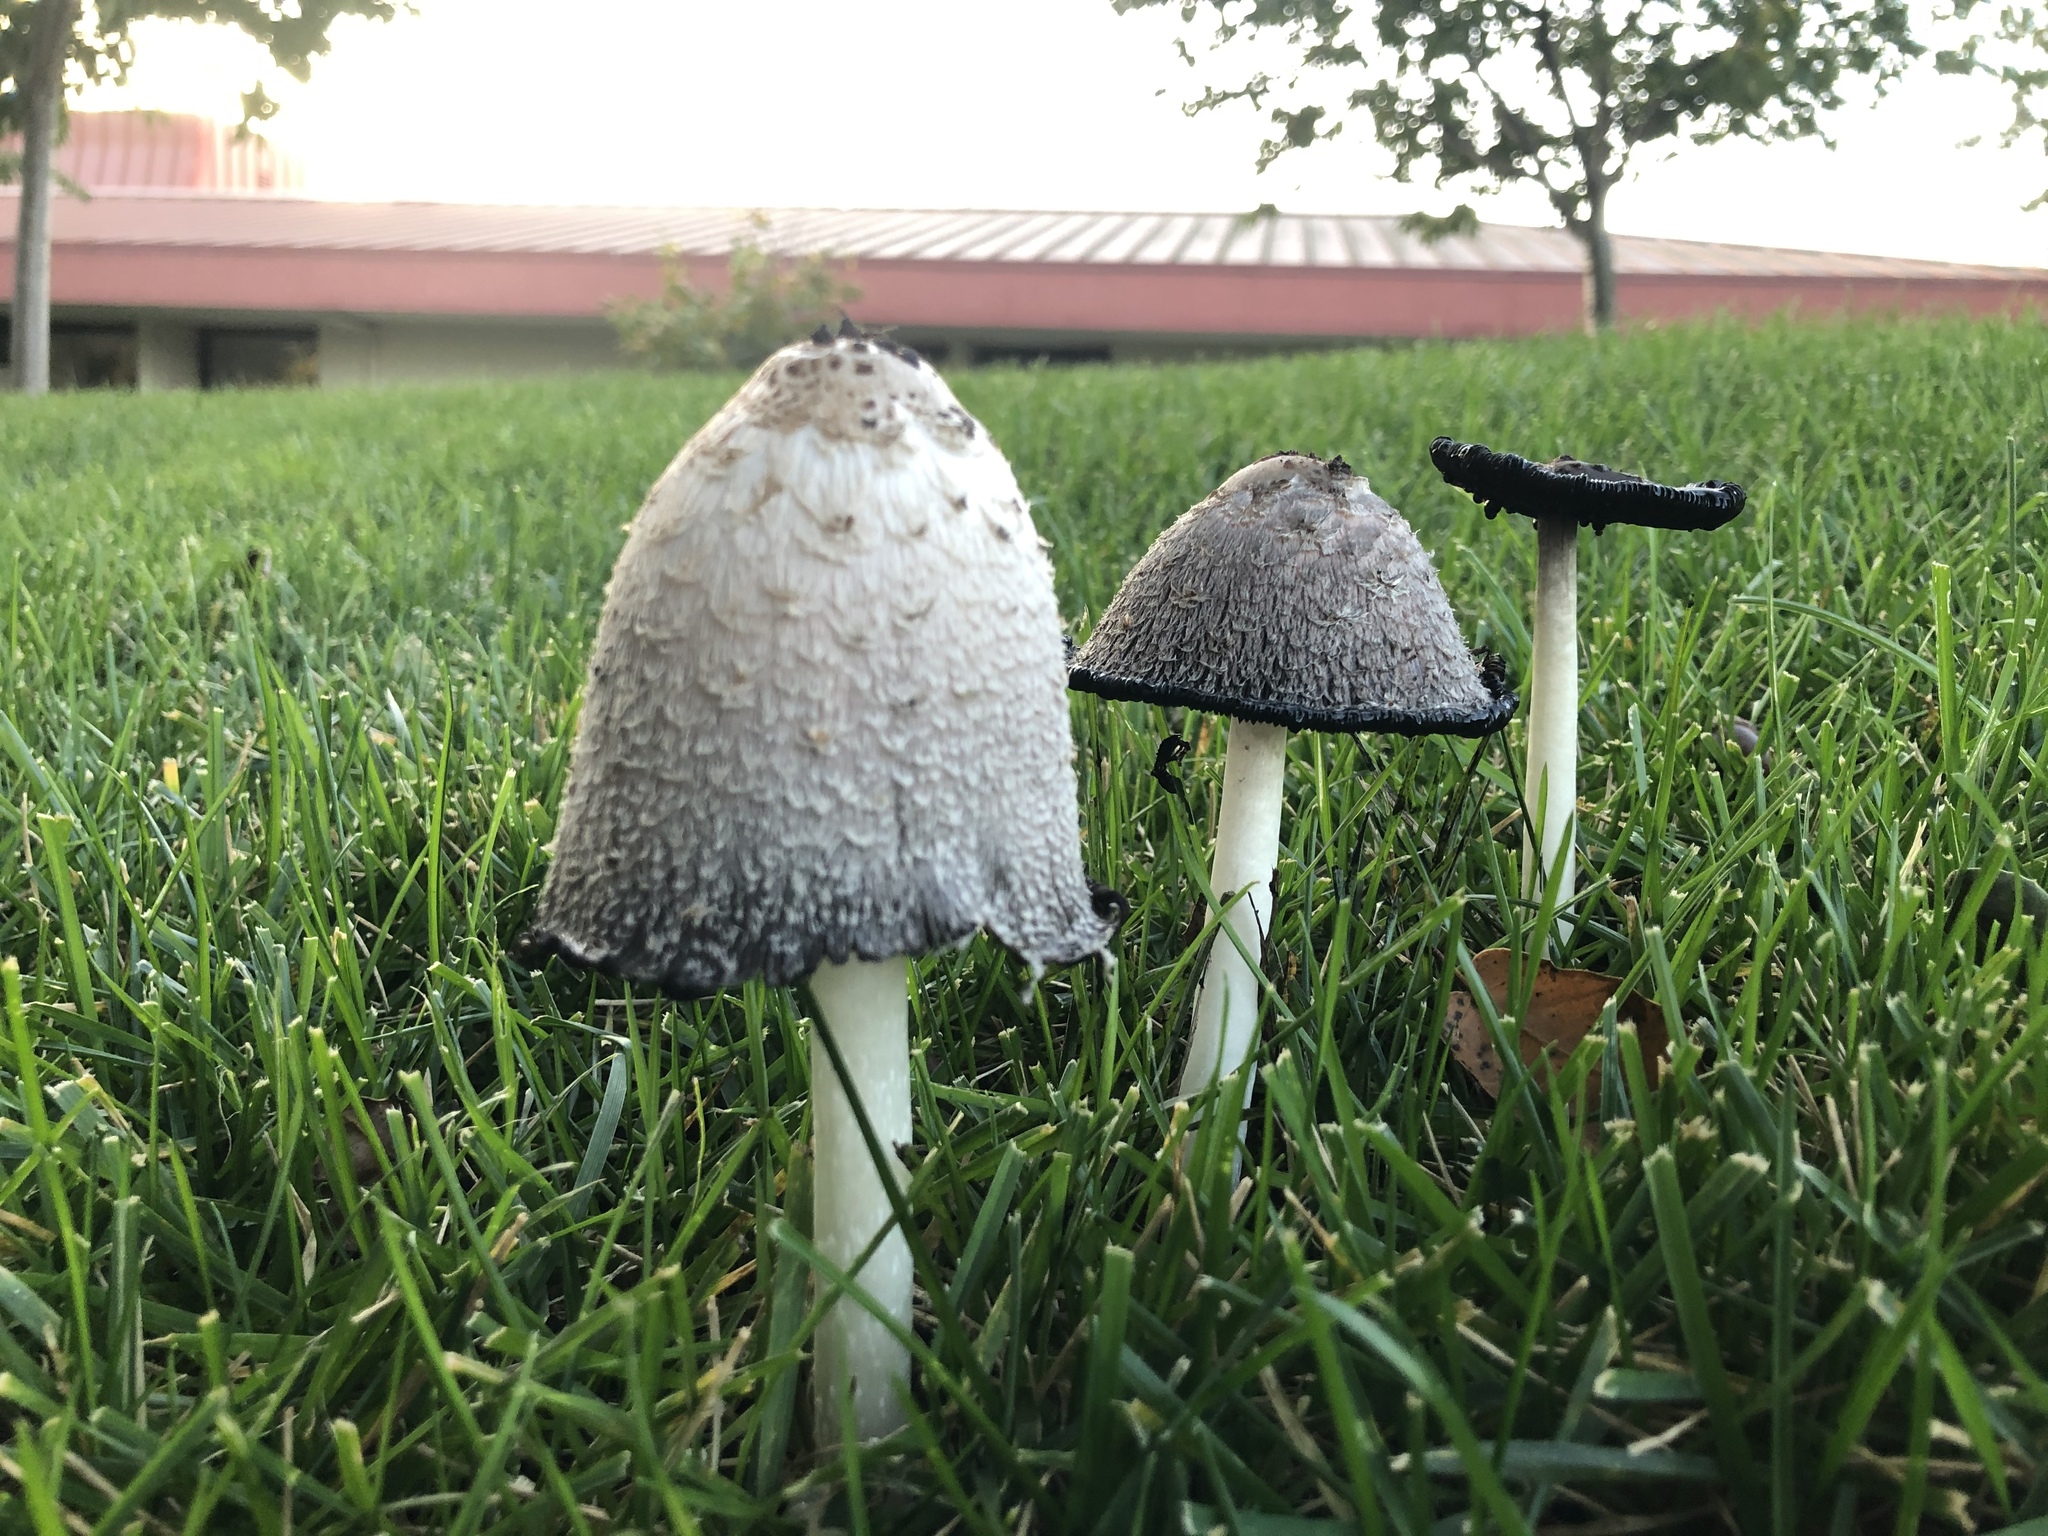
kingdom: Fungi
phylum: Basidiomycota
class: Agaricomycetes
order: Agaricales
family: Agaricaceae
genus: Coprinus
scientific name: Coprinus comatus
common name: Lawyer's wig
